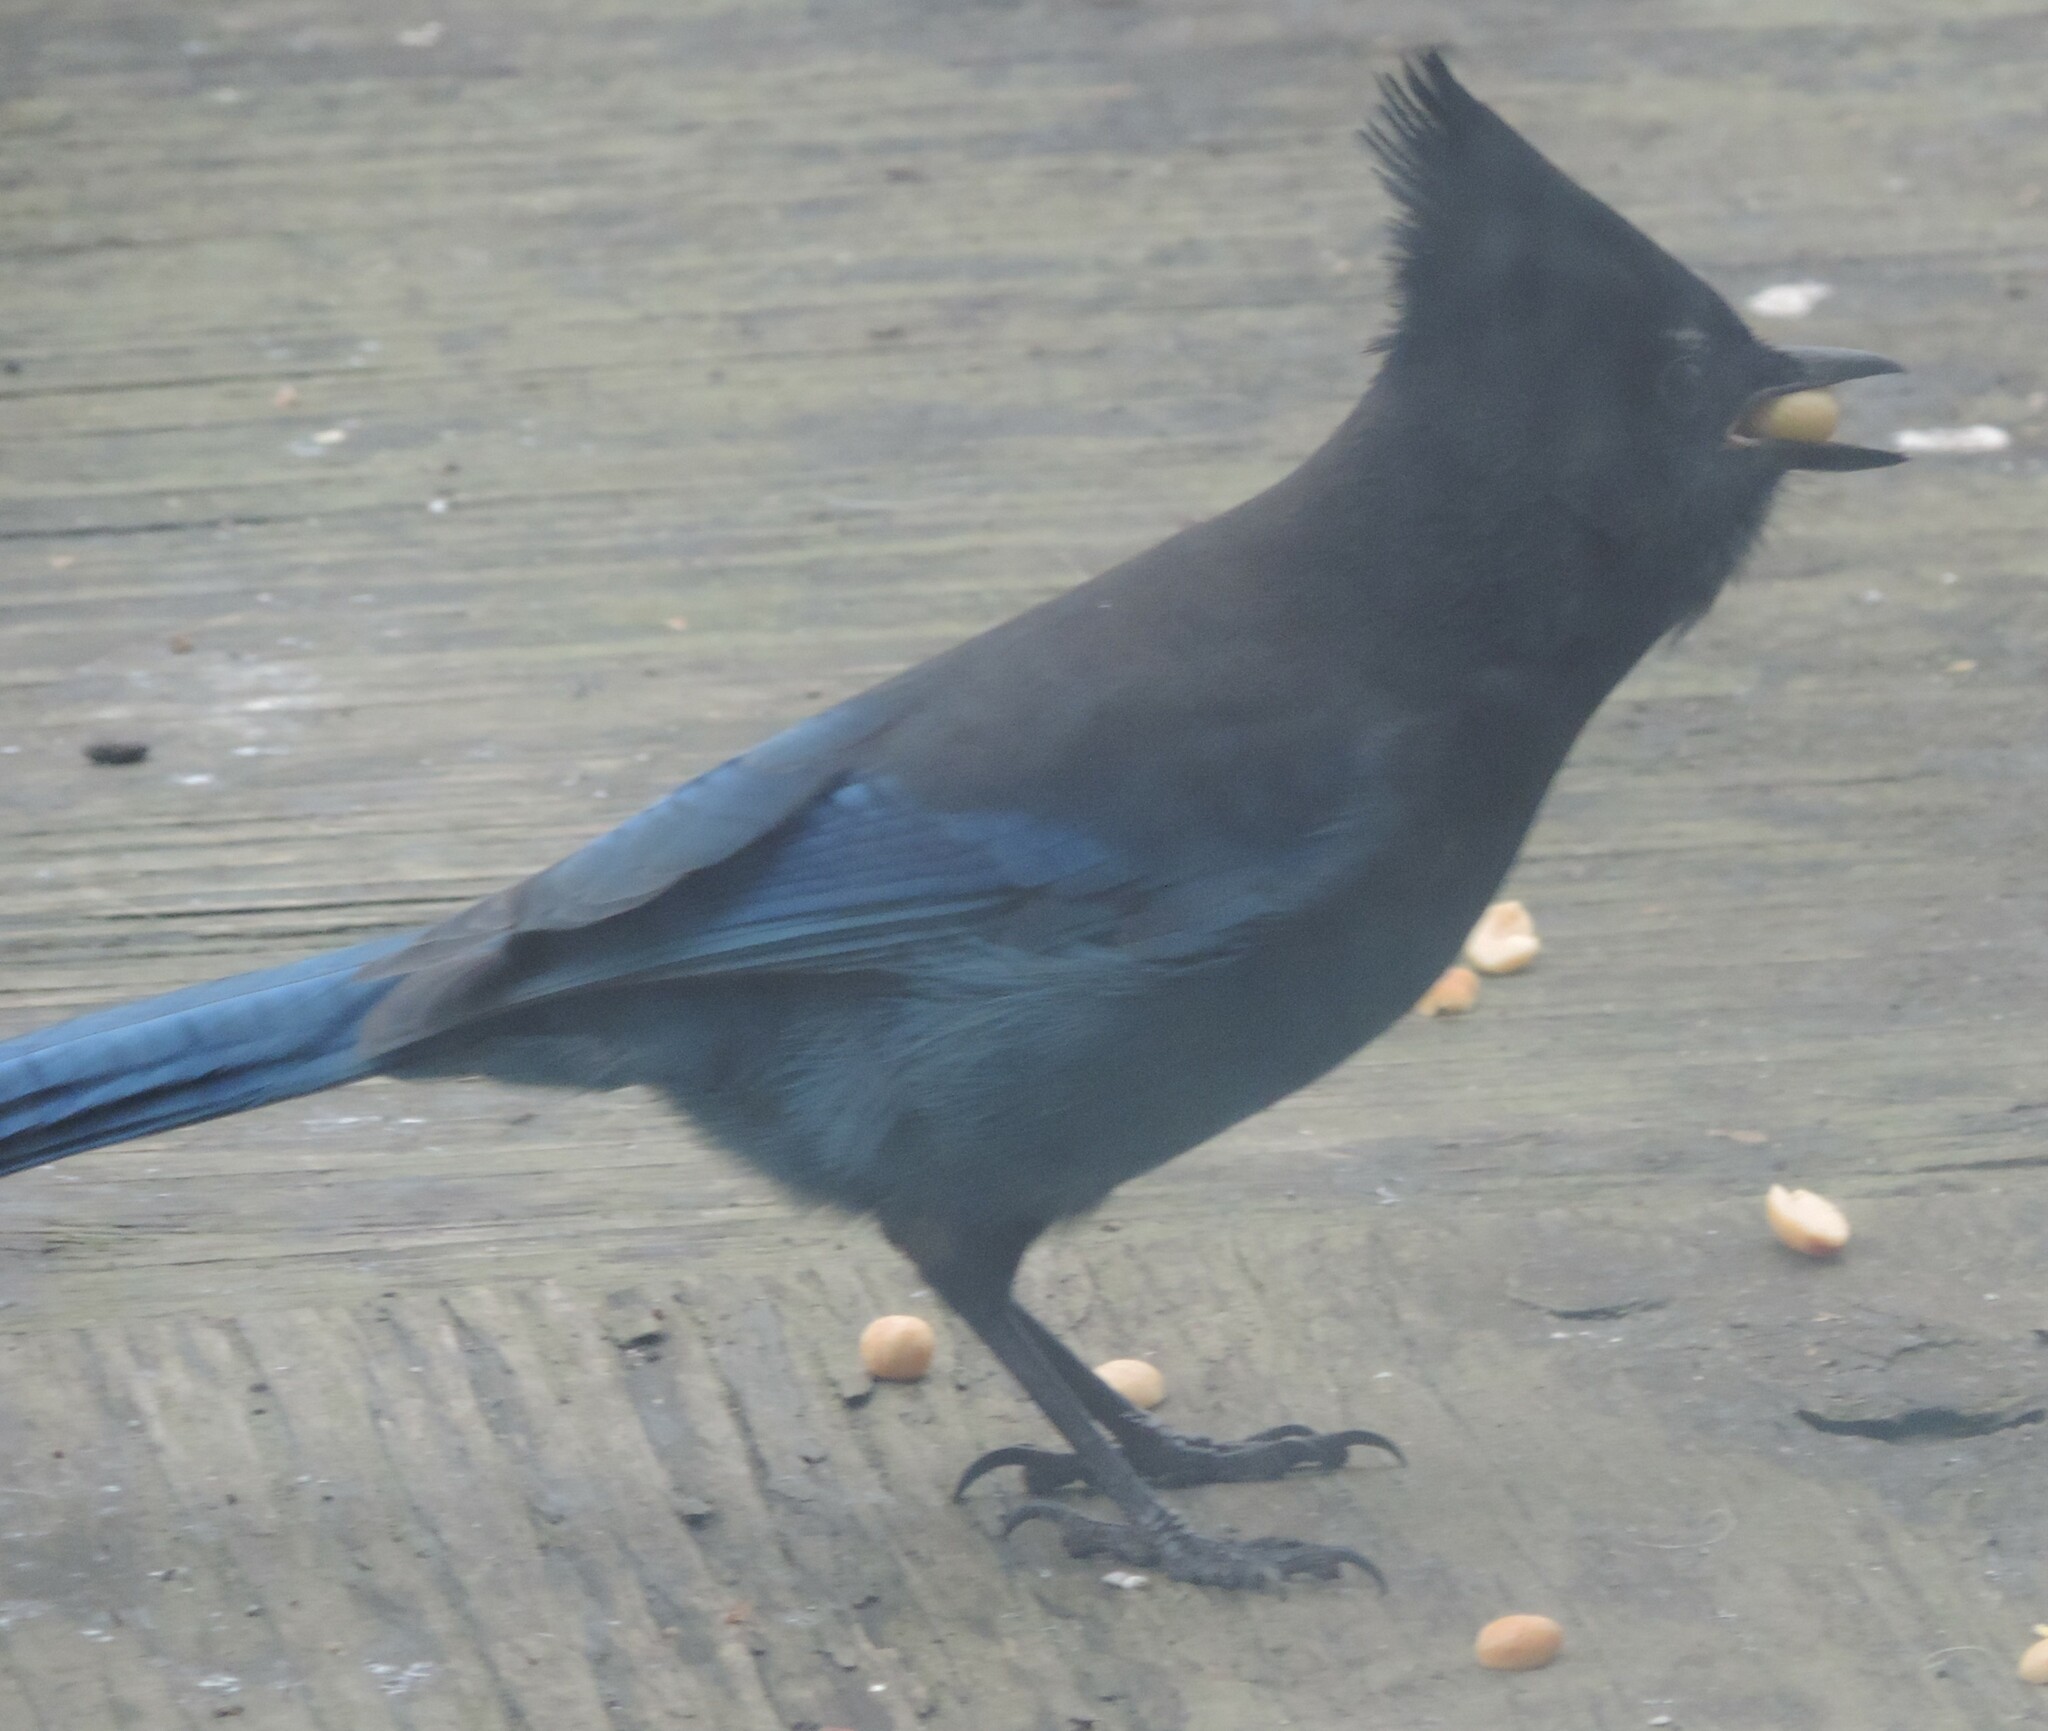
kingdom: Animalia
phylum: Chordata
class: Aves
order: Passeriformes
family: Corvidae
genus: Cyanocitta
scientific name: Cyanocitta stelleri
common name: Steller's jay
